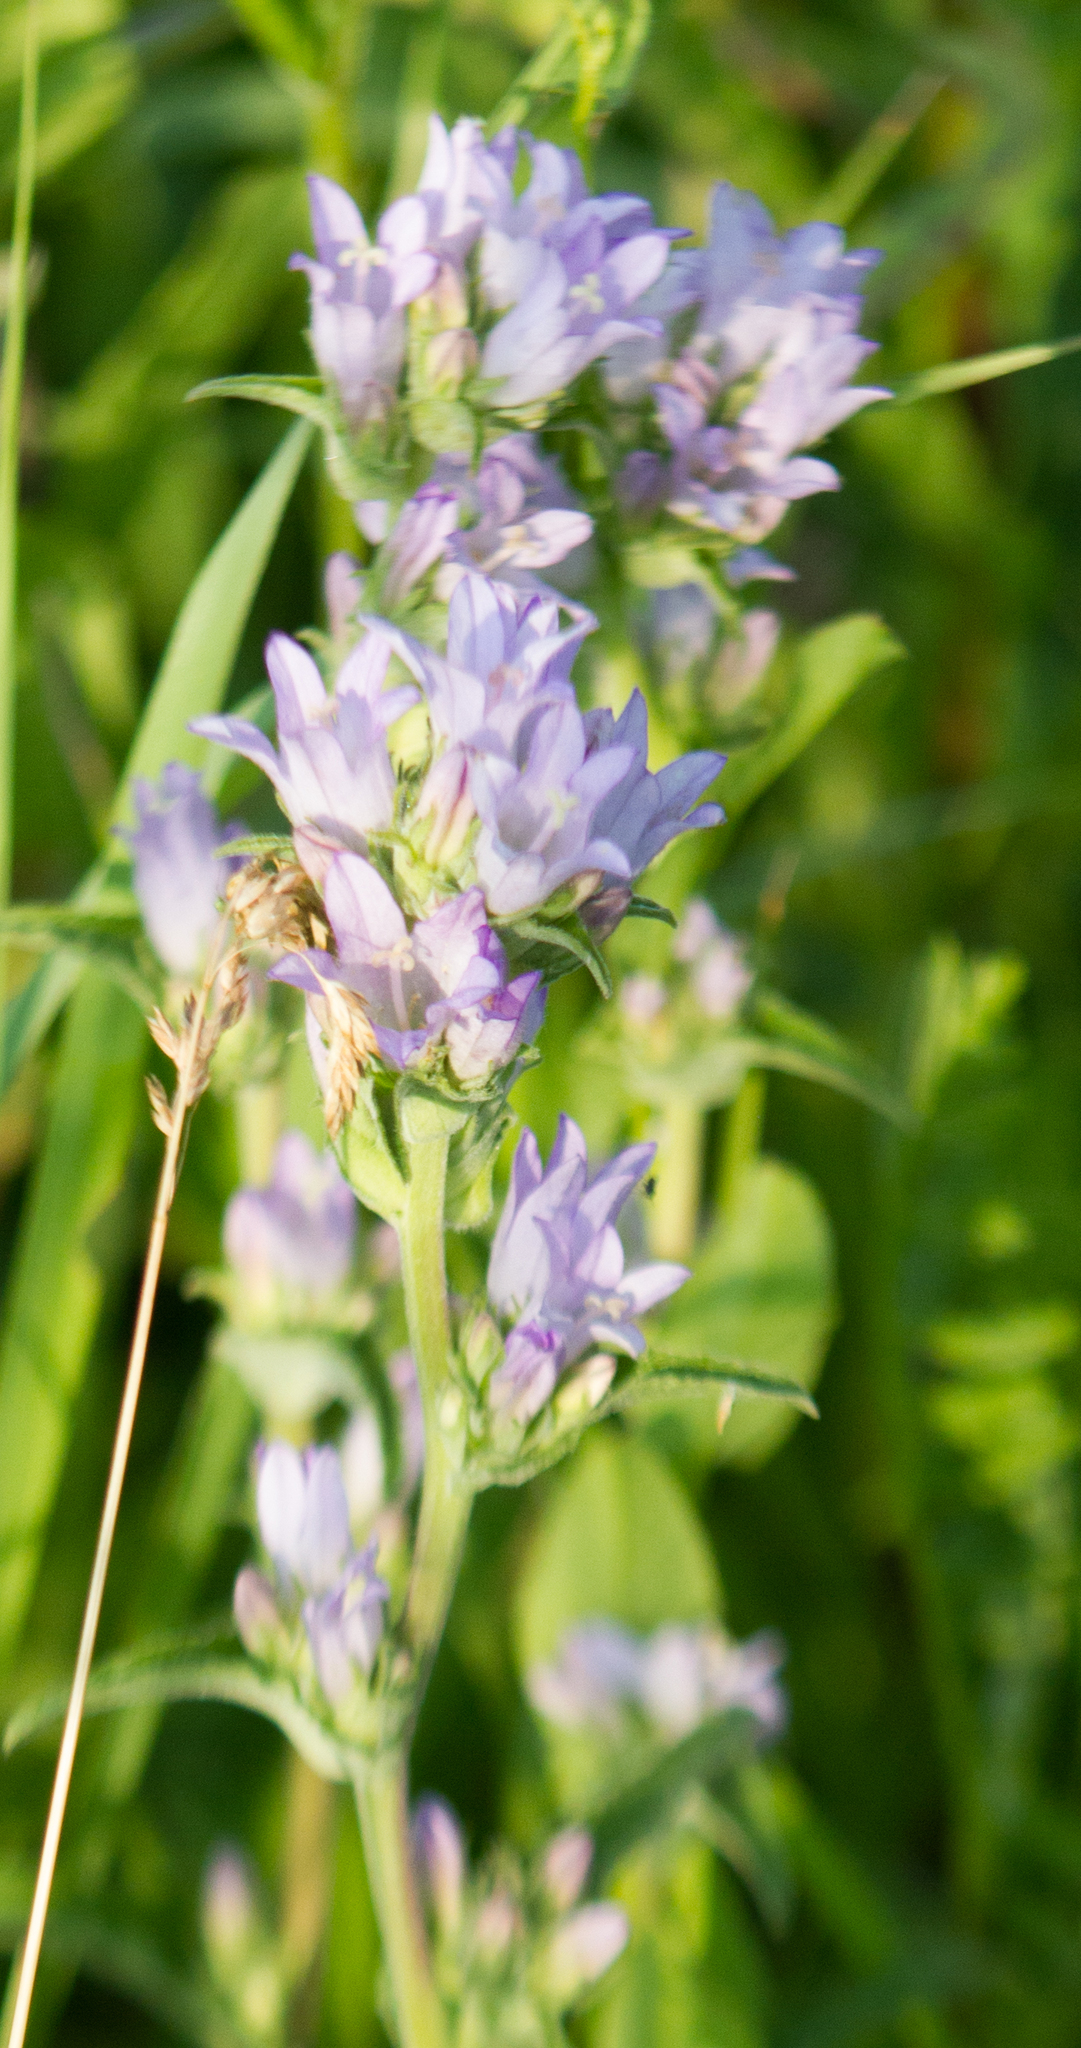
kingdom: Plantae
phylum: Tracheophyta
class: Magnoliopsida
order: Asterales
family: Campanulaceae
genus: Campanula
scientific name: Campanula glomerata
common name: Clustered bellflower
